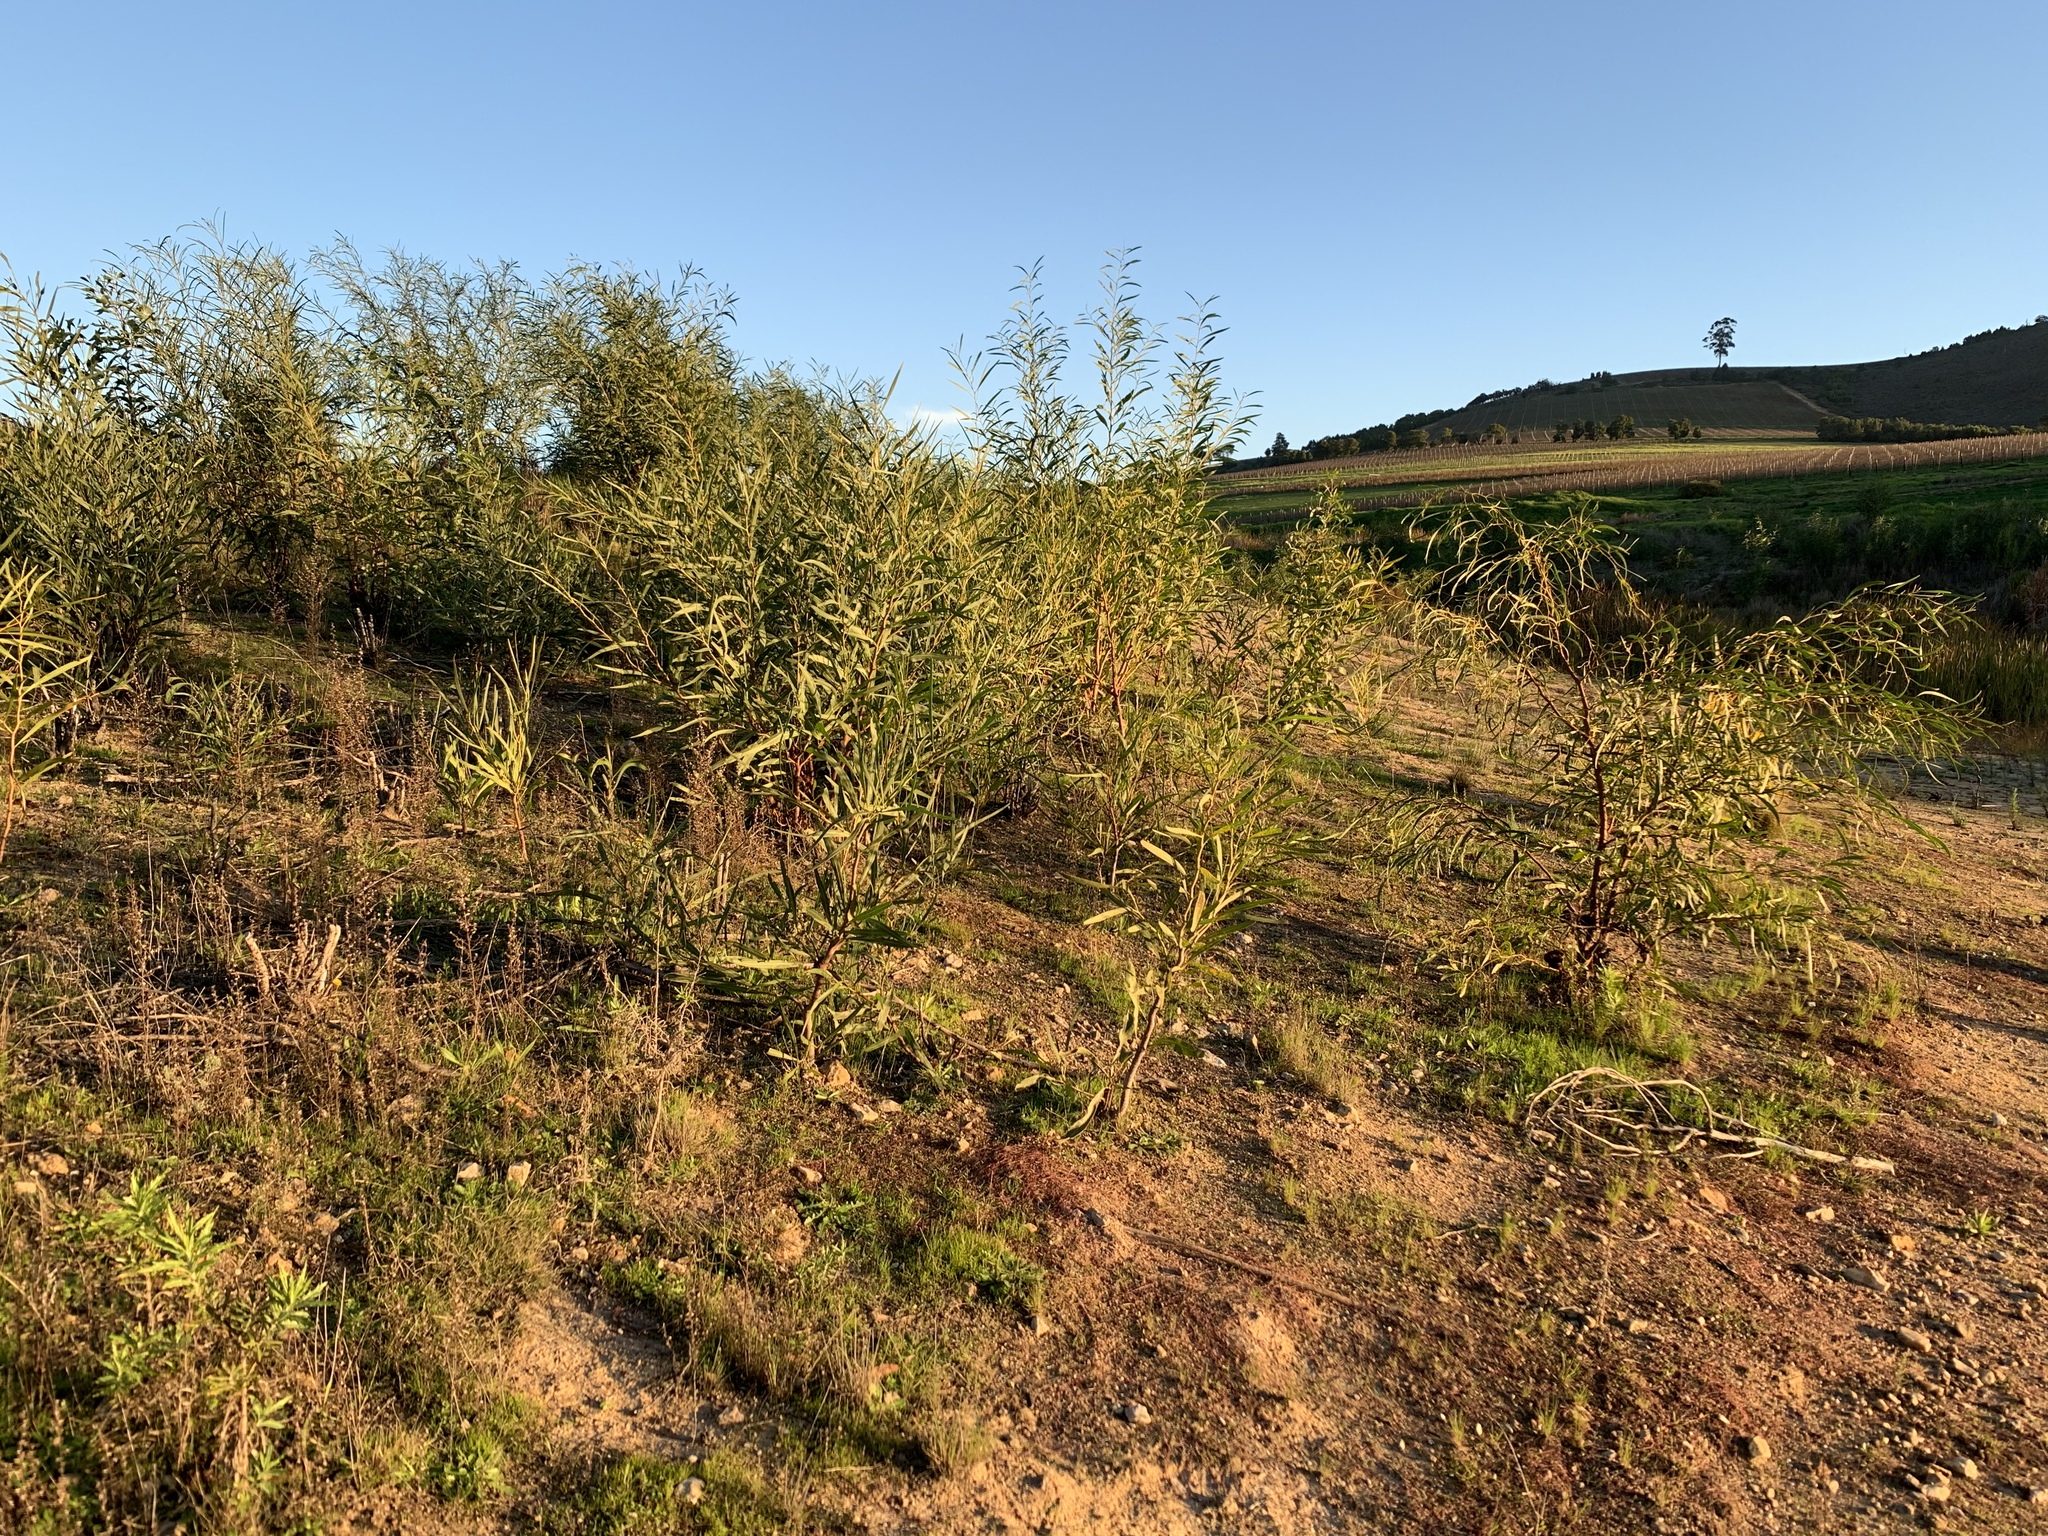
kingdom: Plantae
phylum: Tracheophyta
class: Magnoliopsida
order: Fabales
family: Fabaceae
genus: Acacia
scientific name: Acacia saligna
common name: Orange wattle
